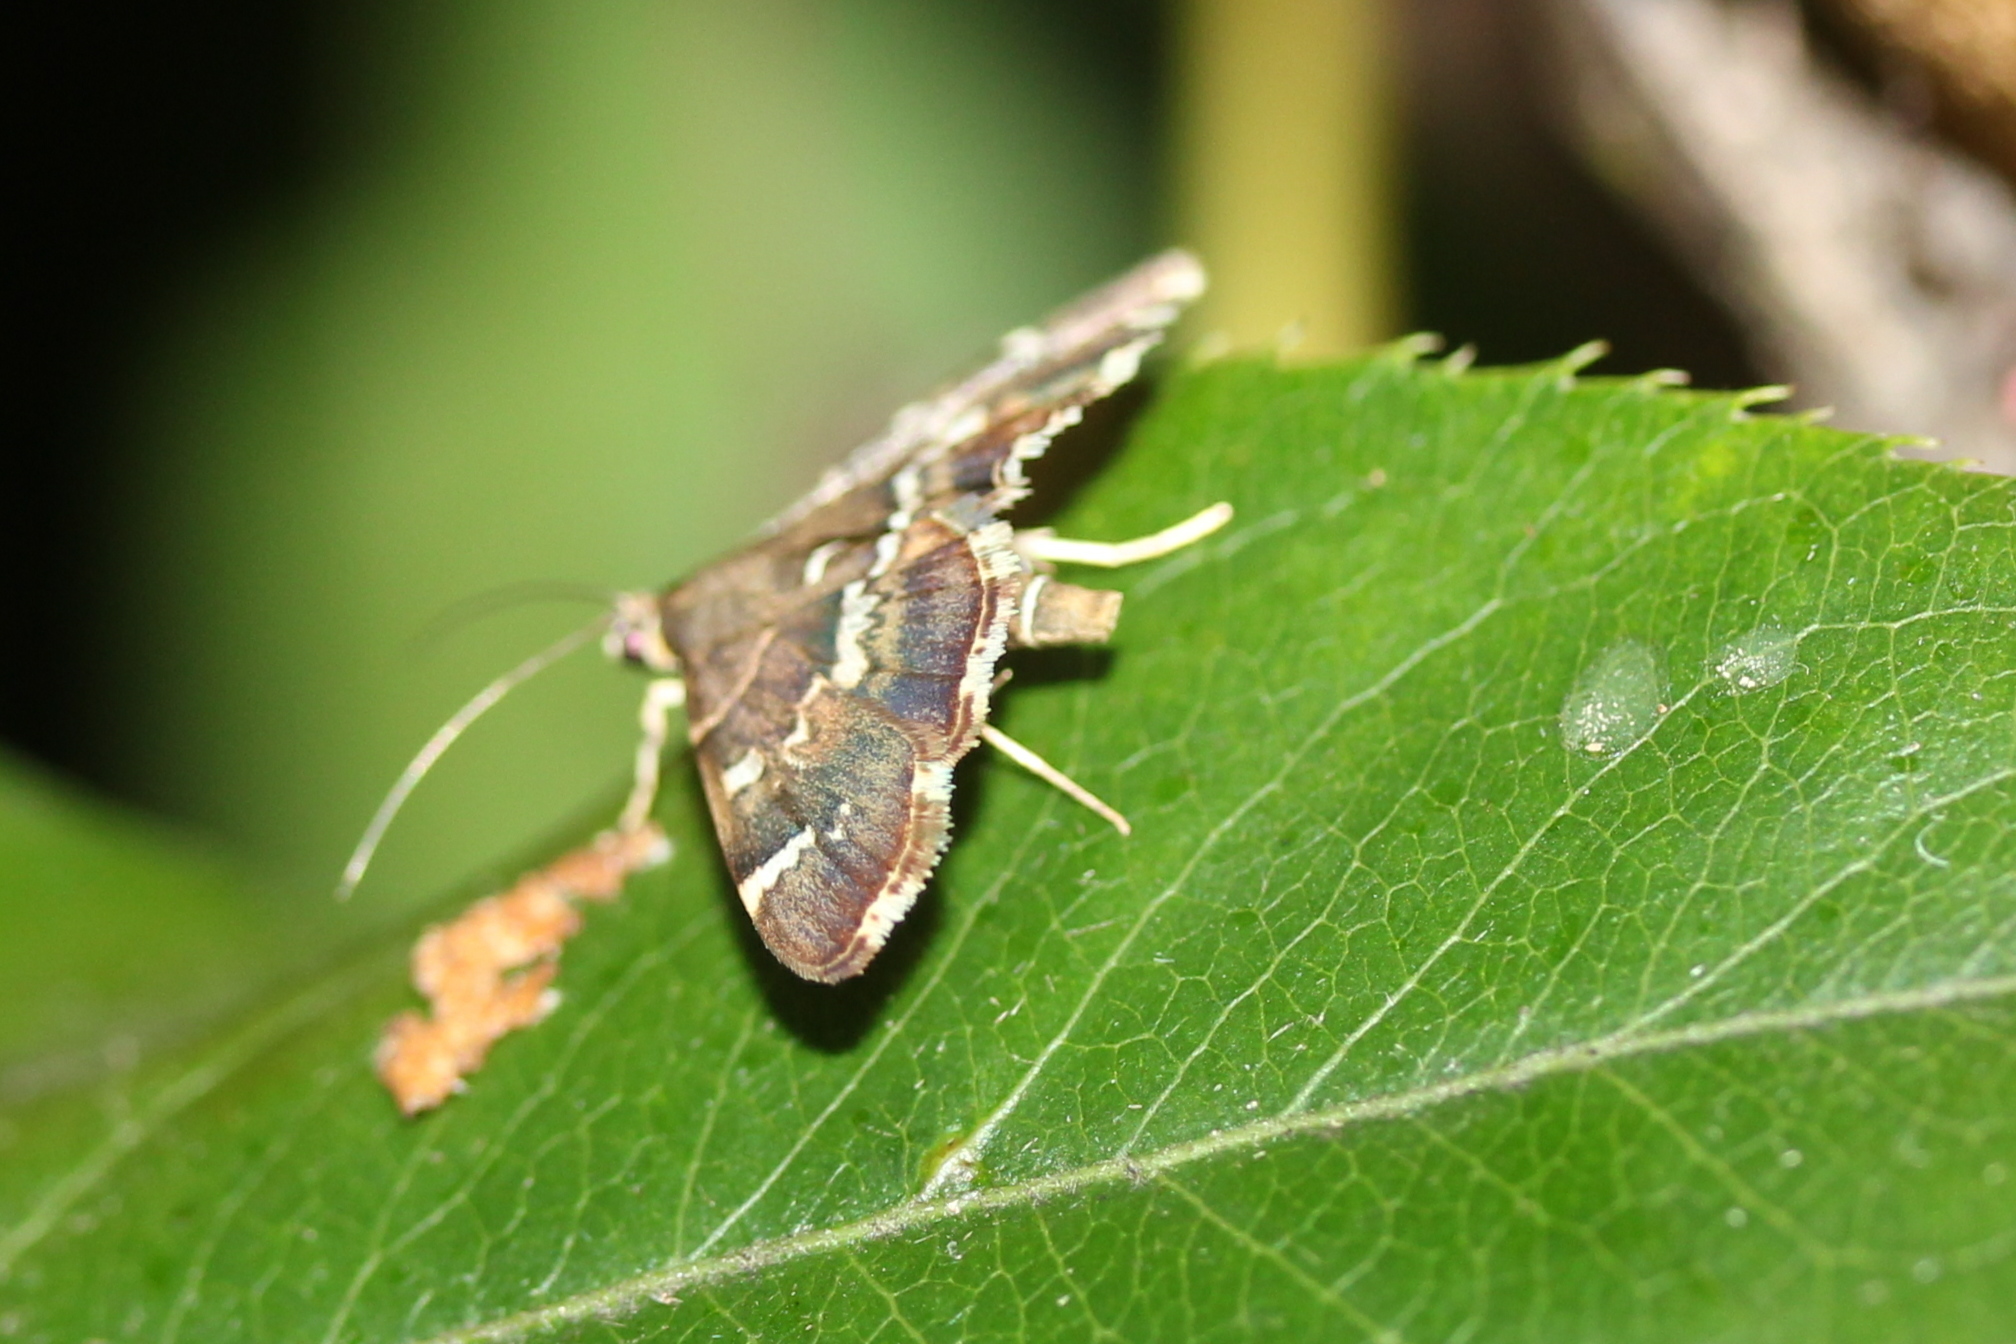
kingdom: Animalia
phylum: Arthropoda
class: Insecta
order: Lepidoptera
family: Crambidae
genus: Hymenia
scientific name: Hymenia perspectalis
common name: Spotted beet webworm
